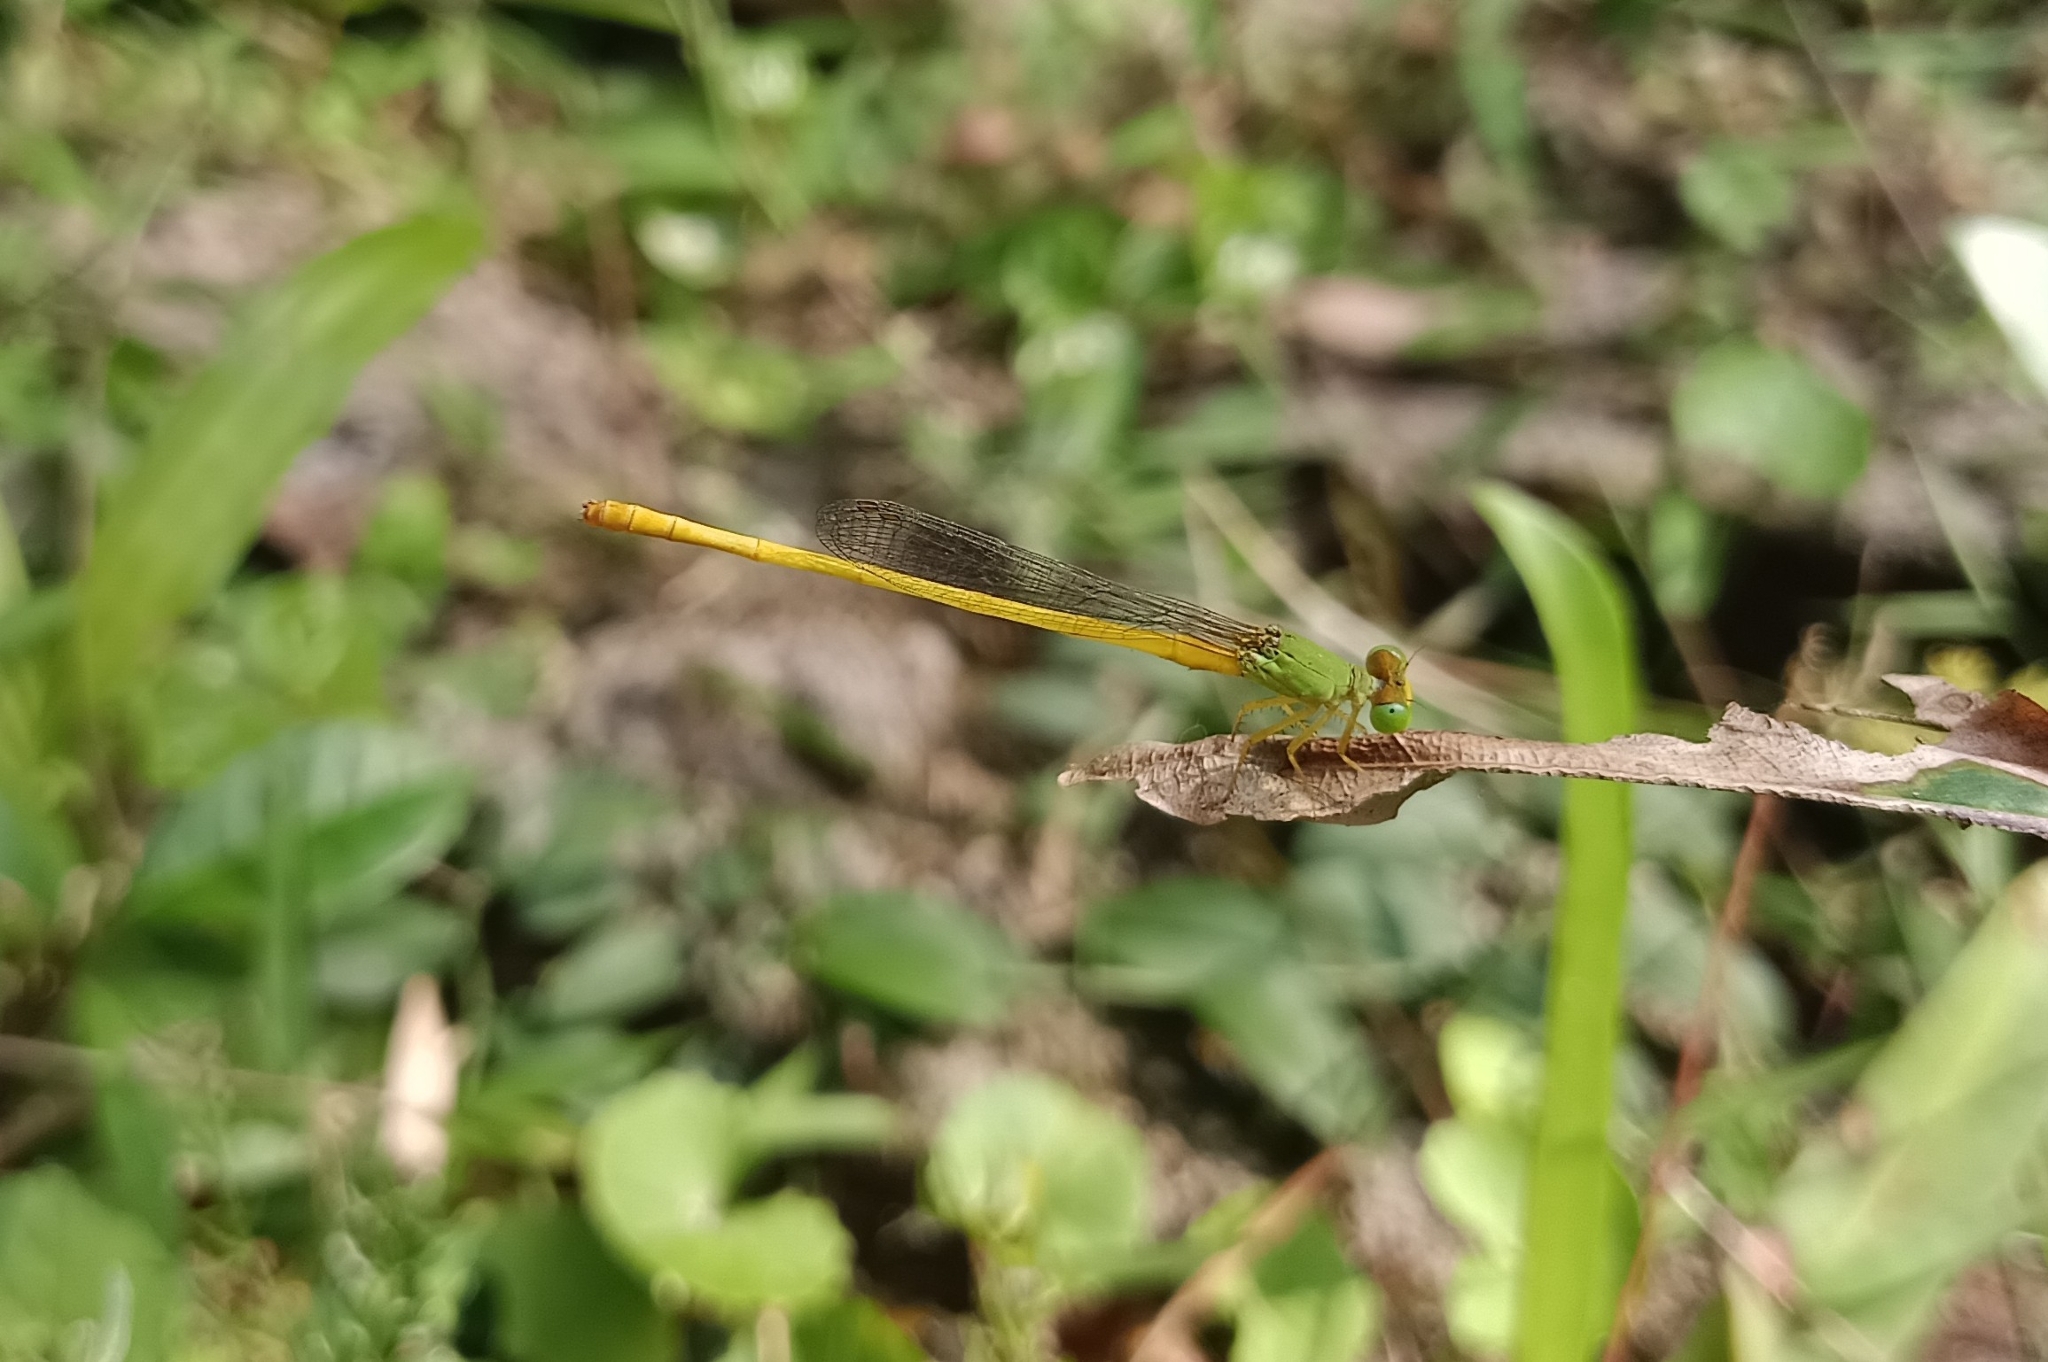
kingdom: Animalia
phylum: Arthropoda
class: Insecta
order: Odonata
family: Coenagrionidae
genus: Ceriagrion
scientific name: Ceriagrion coromandelianum
